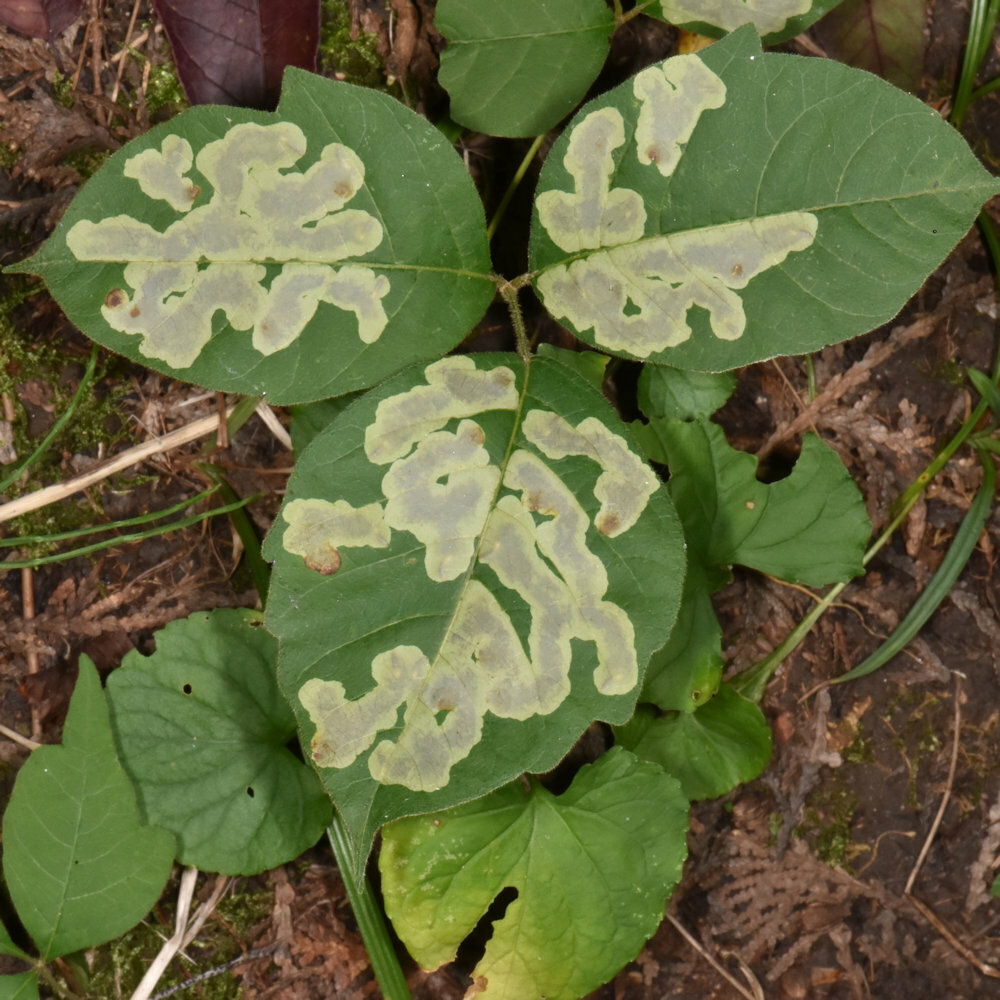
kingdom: Animalia
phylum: Arthropoda
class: Insecta
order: Lepidoptera
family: Gracillariidae
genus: Cameraria
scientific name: Cameraria guttifinitella
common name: Poison ivy leaf-miner moth
